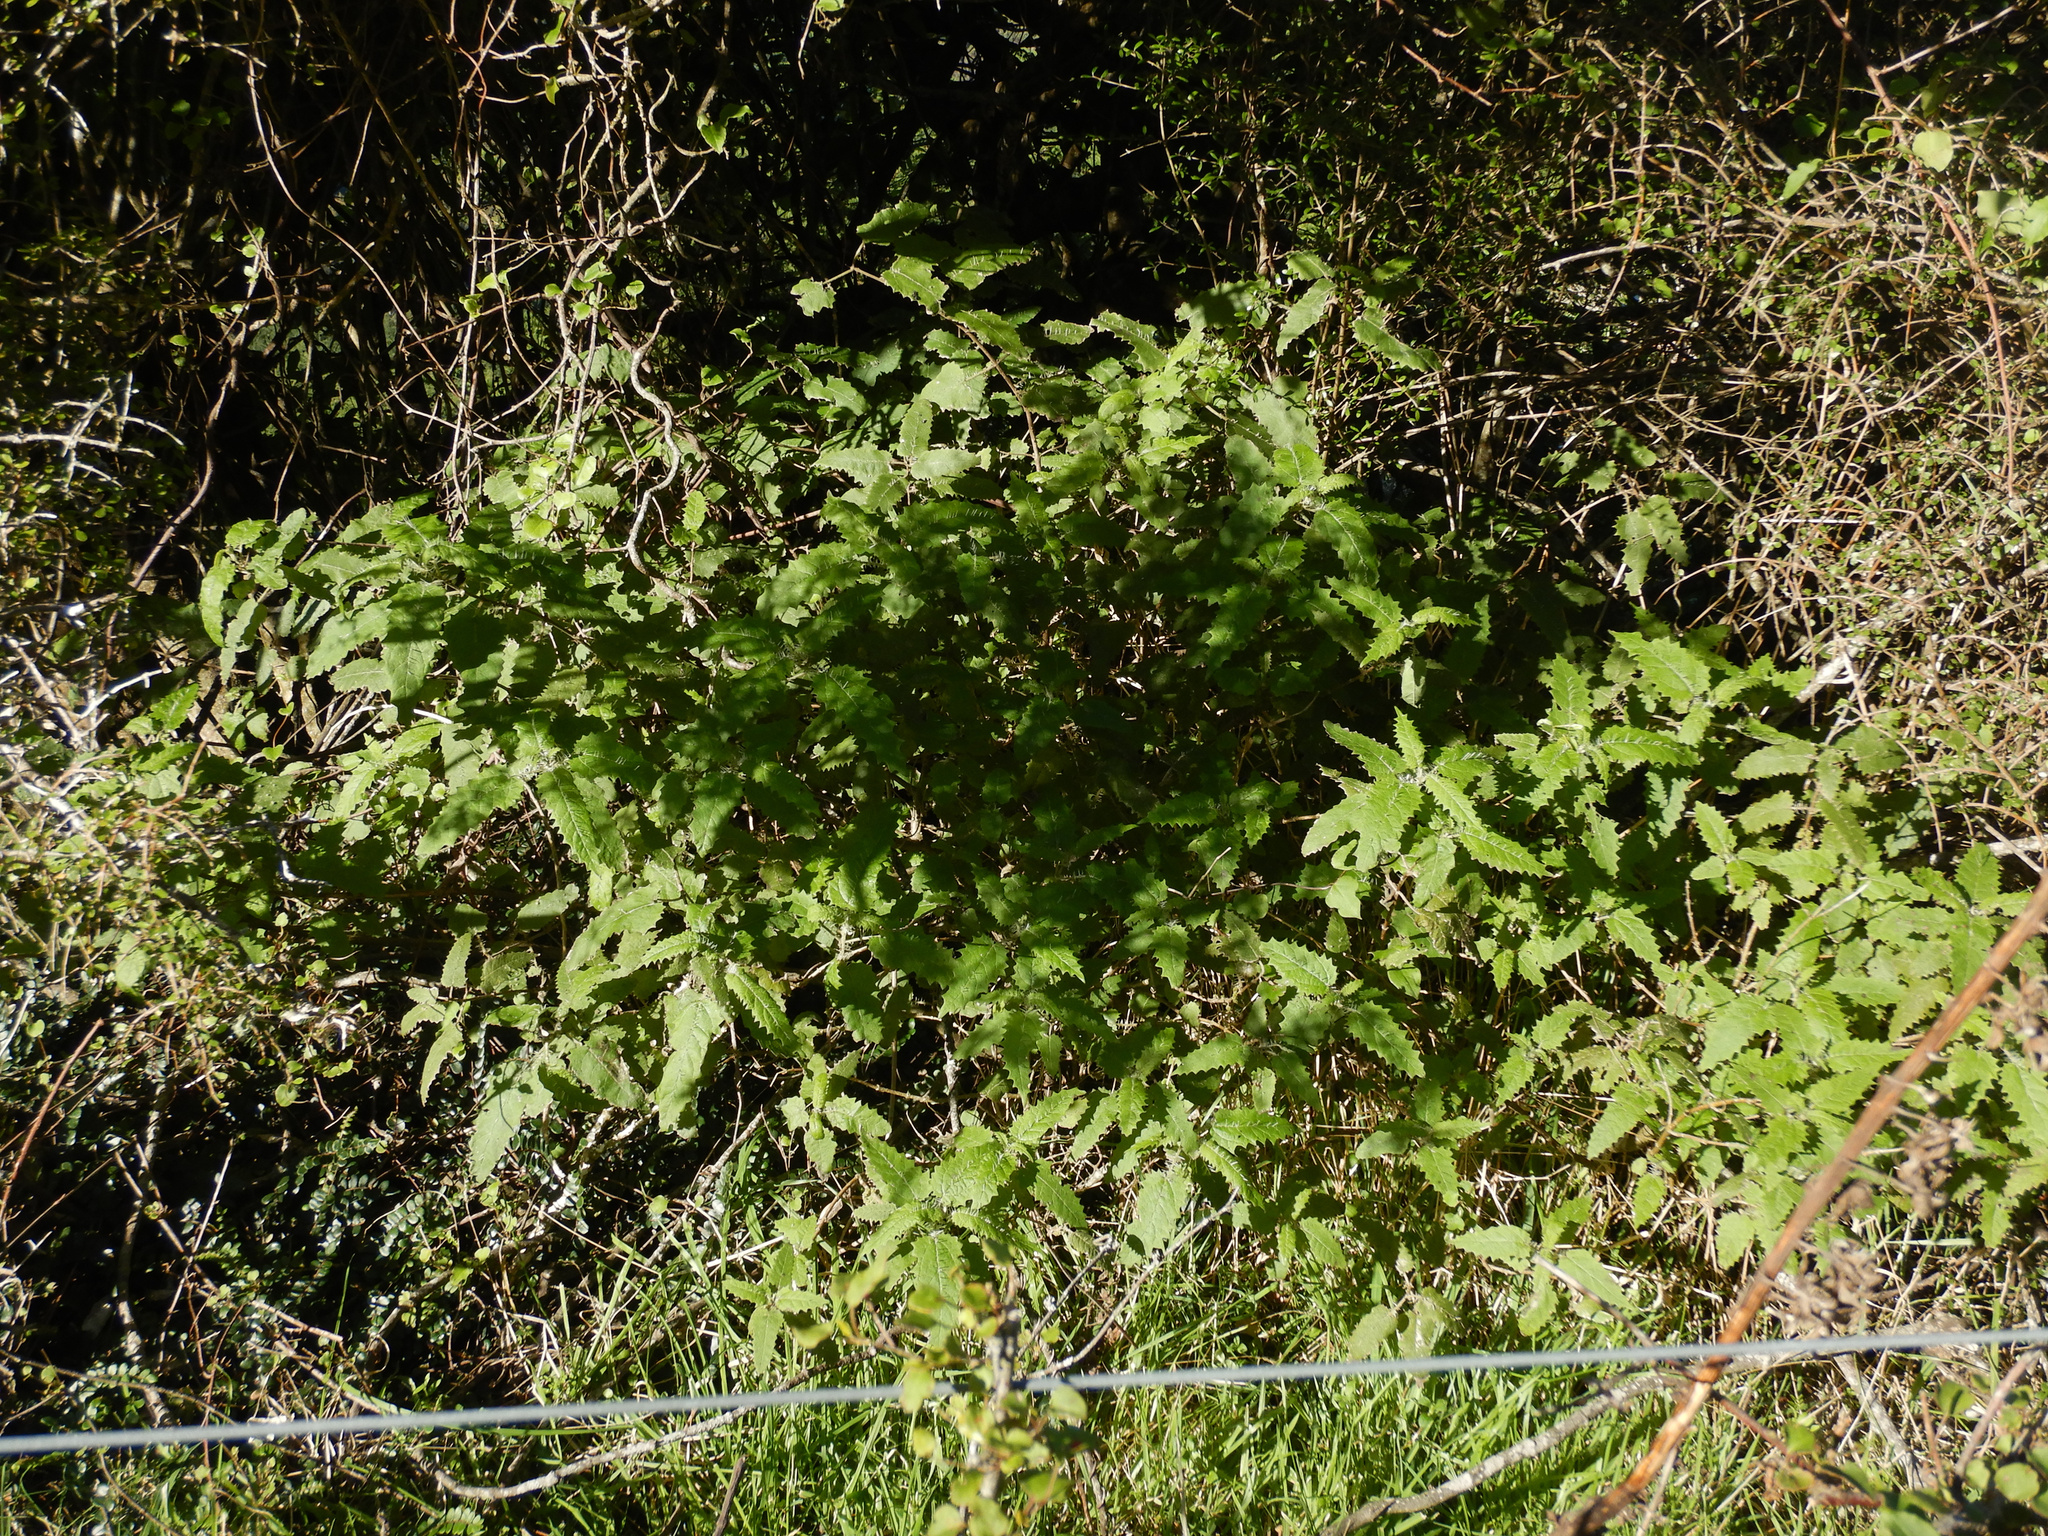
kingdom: Plantae
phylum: Tracheophyta
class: Magnoliopsida
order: Rosales
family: Urticaceae
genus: Urtica
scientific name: Urtica ferox
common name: Tree nettle
